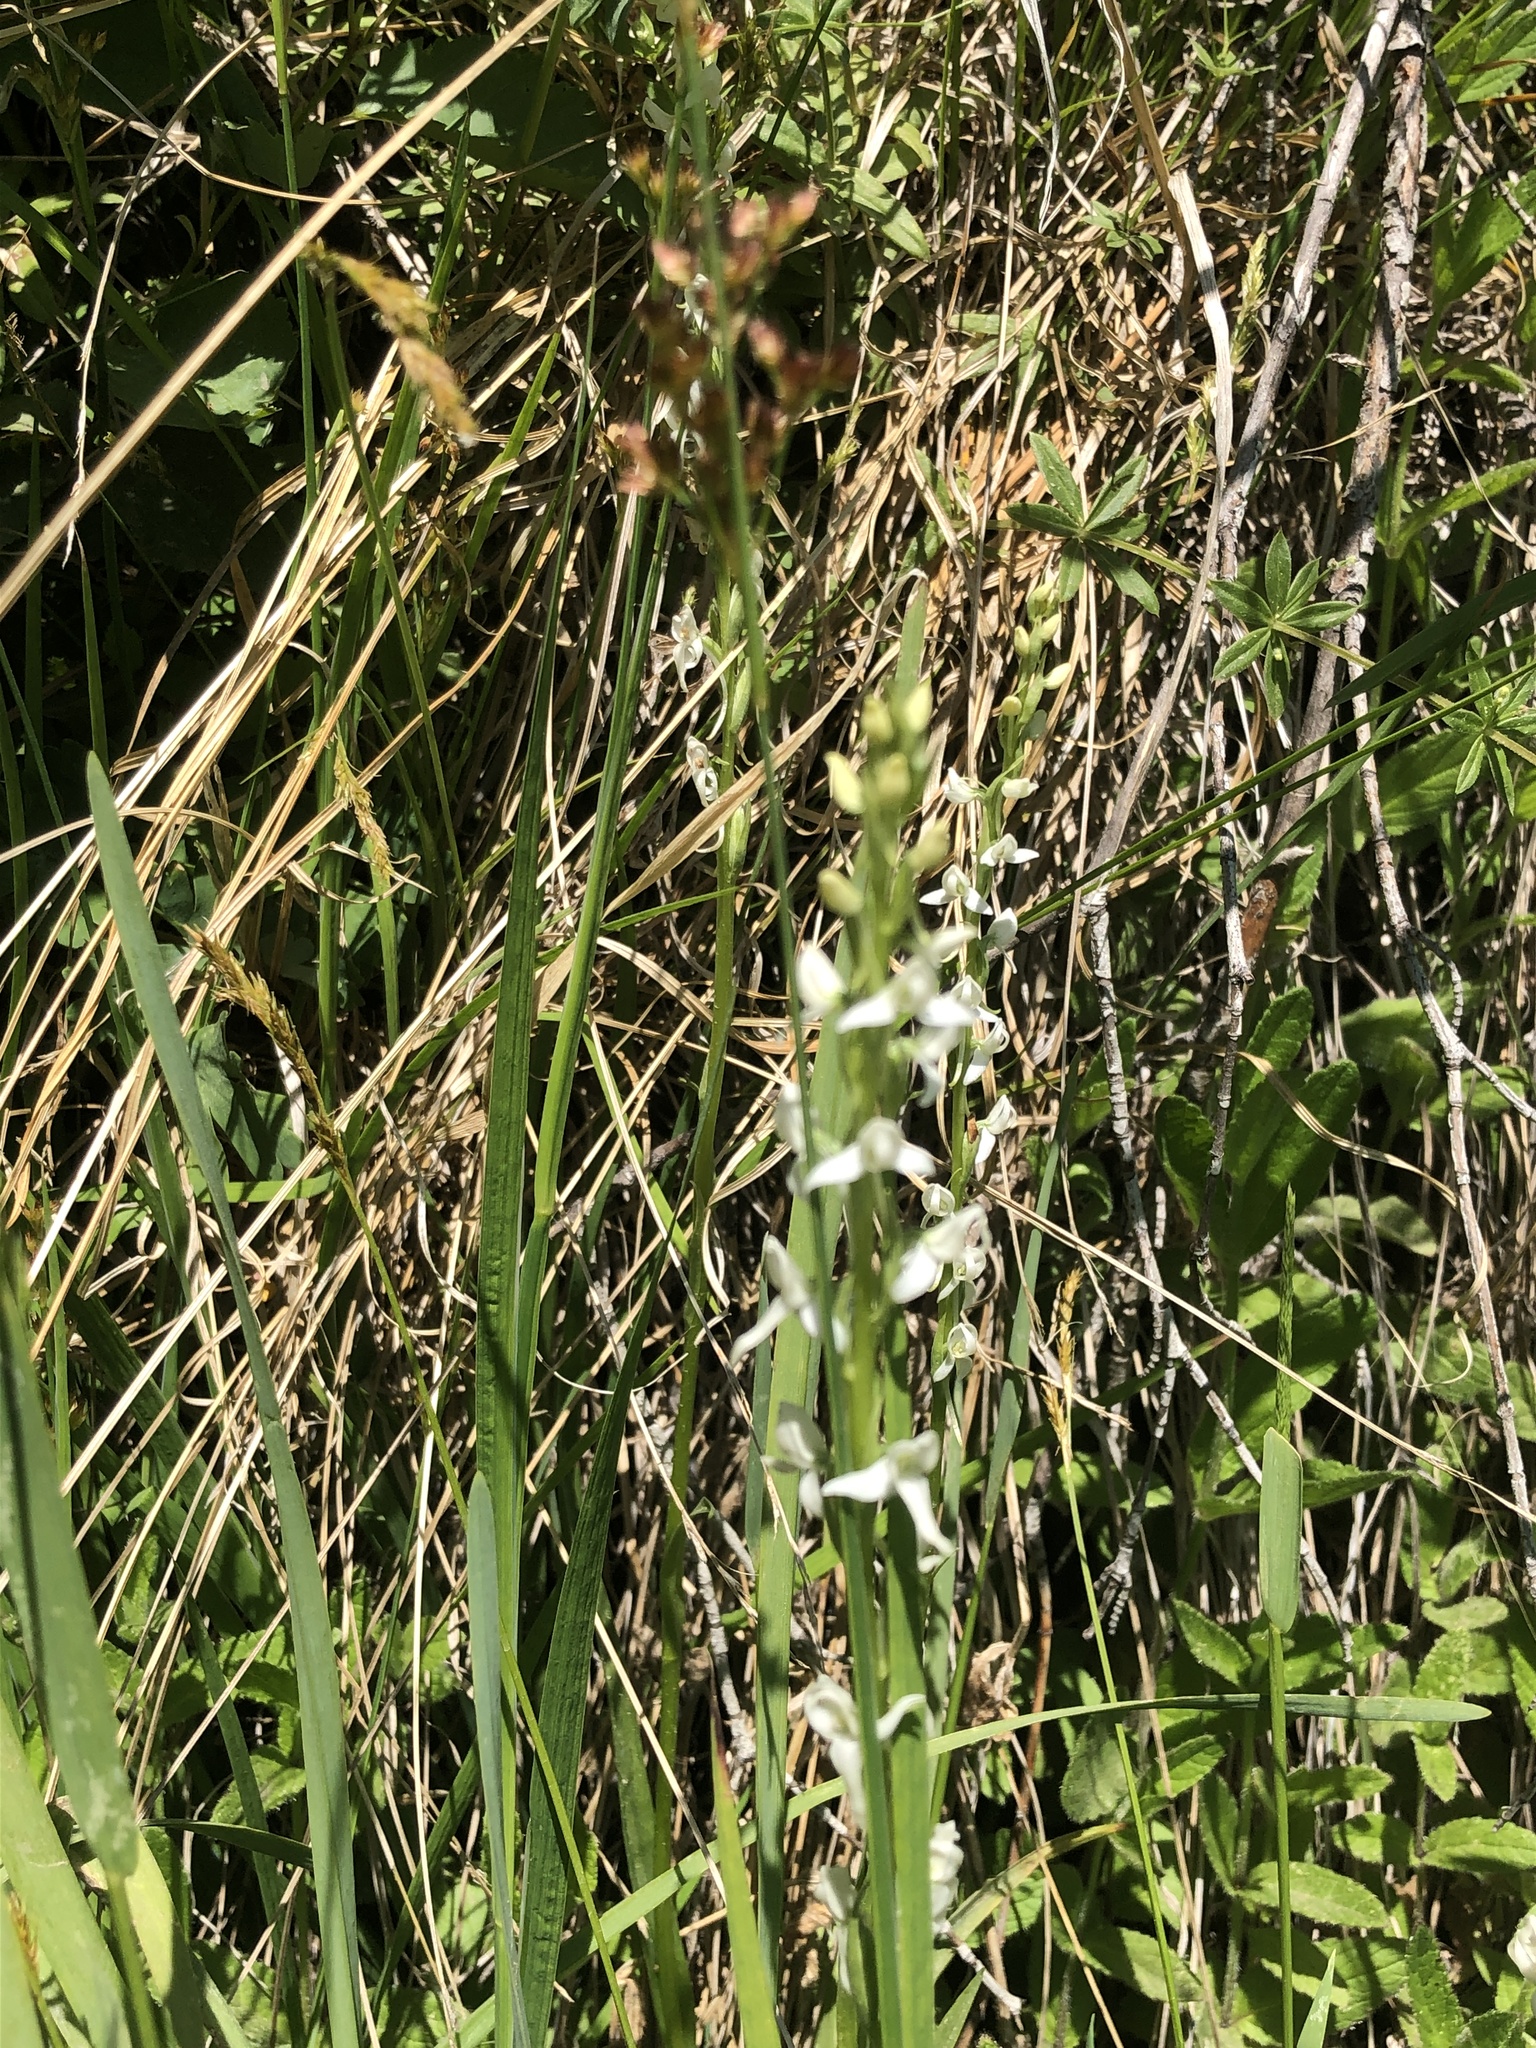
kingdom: Plantae
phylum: Tracheophyta
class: Liliopsida
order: Asparagales
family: Orchidaceae
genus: Platanthera
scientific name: Platanthera dilatata
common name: Bog candles
